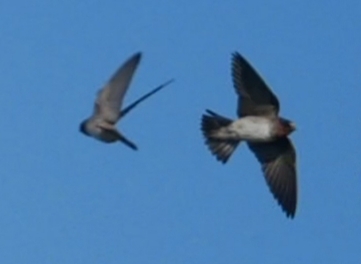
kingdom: Animalia
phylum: Chordata
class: Aves
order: Passeriformes
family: Hirundinidae
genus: Petrochelidon
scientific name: Petrochelidon pyrrhonota
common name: American cliff swallow
